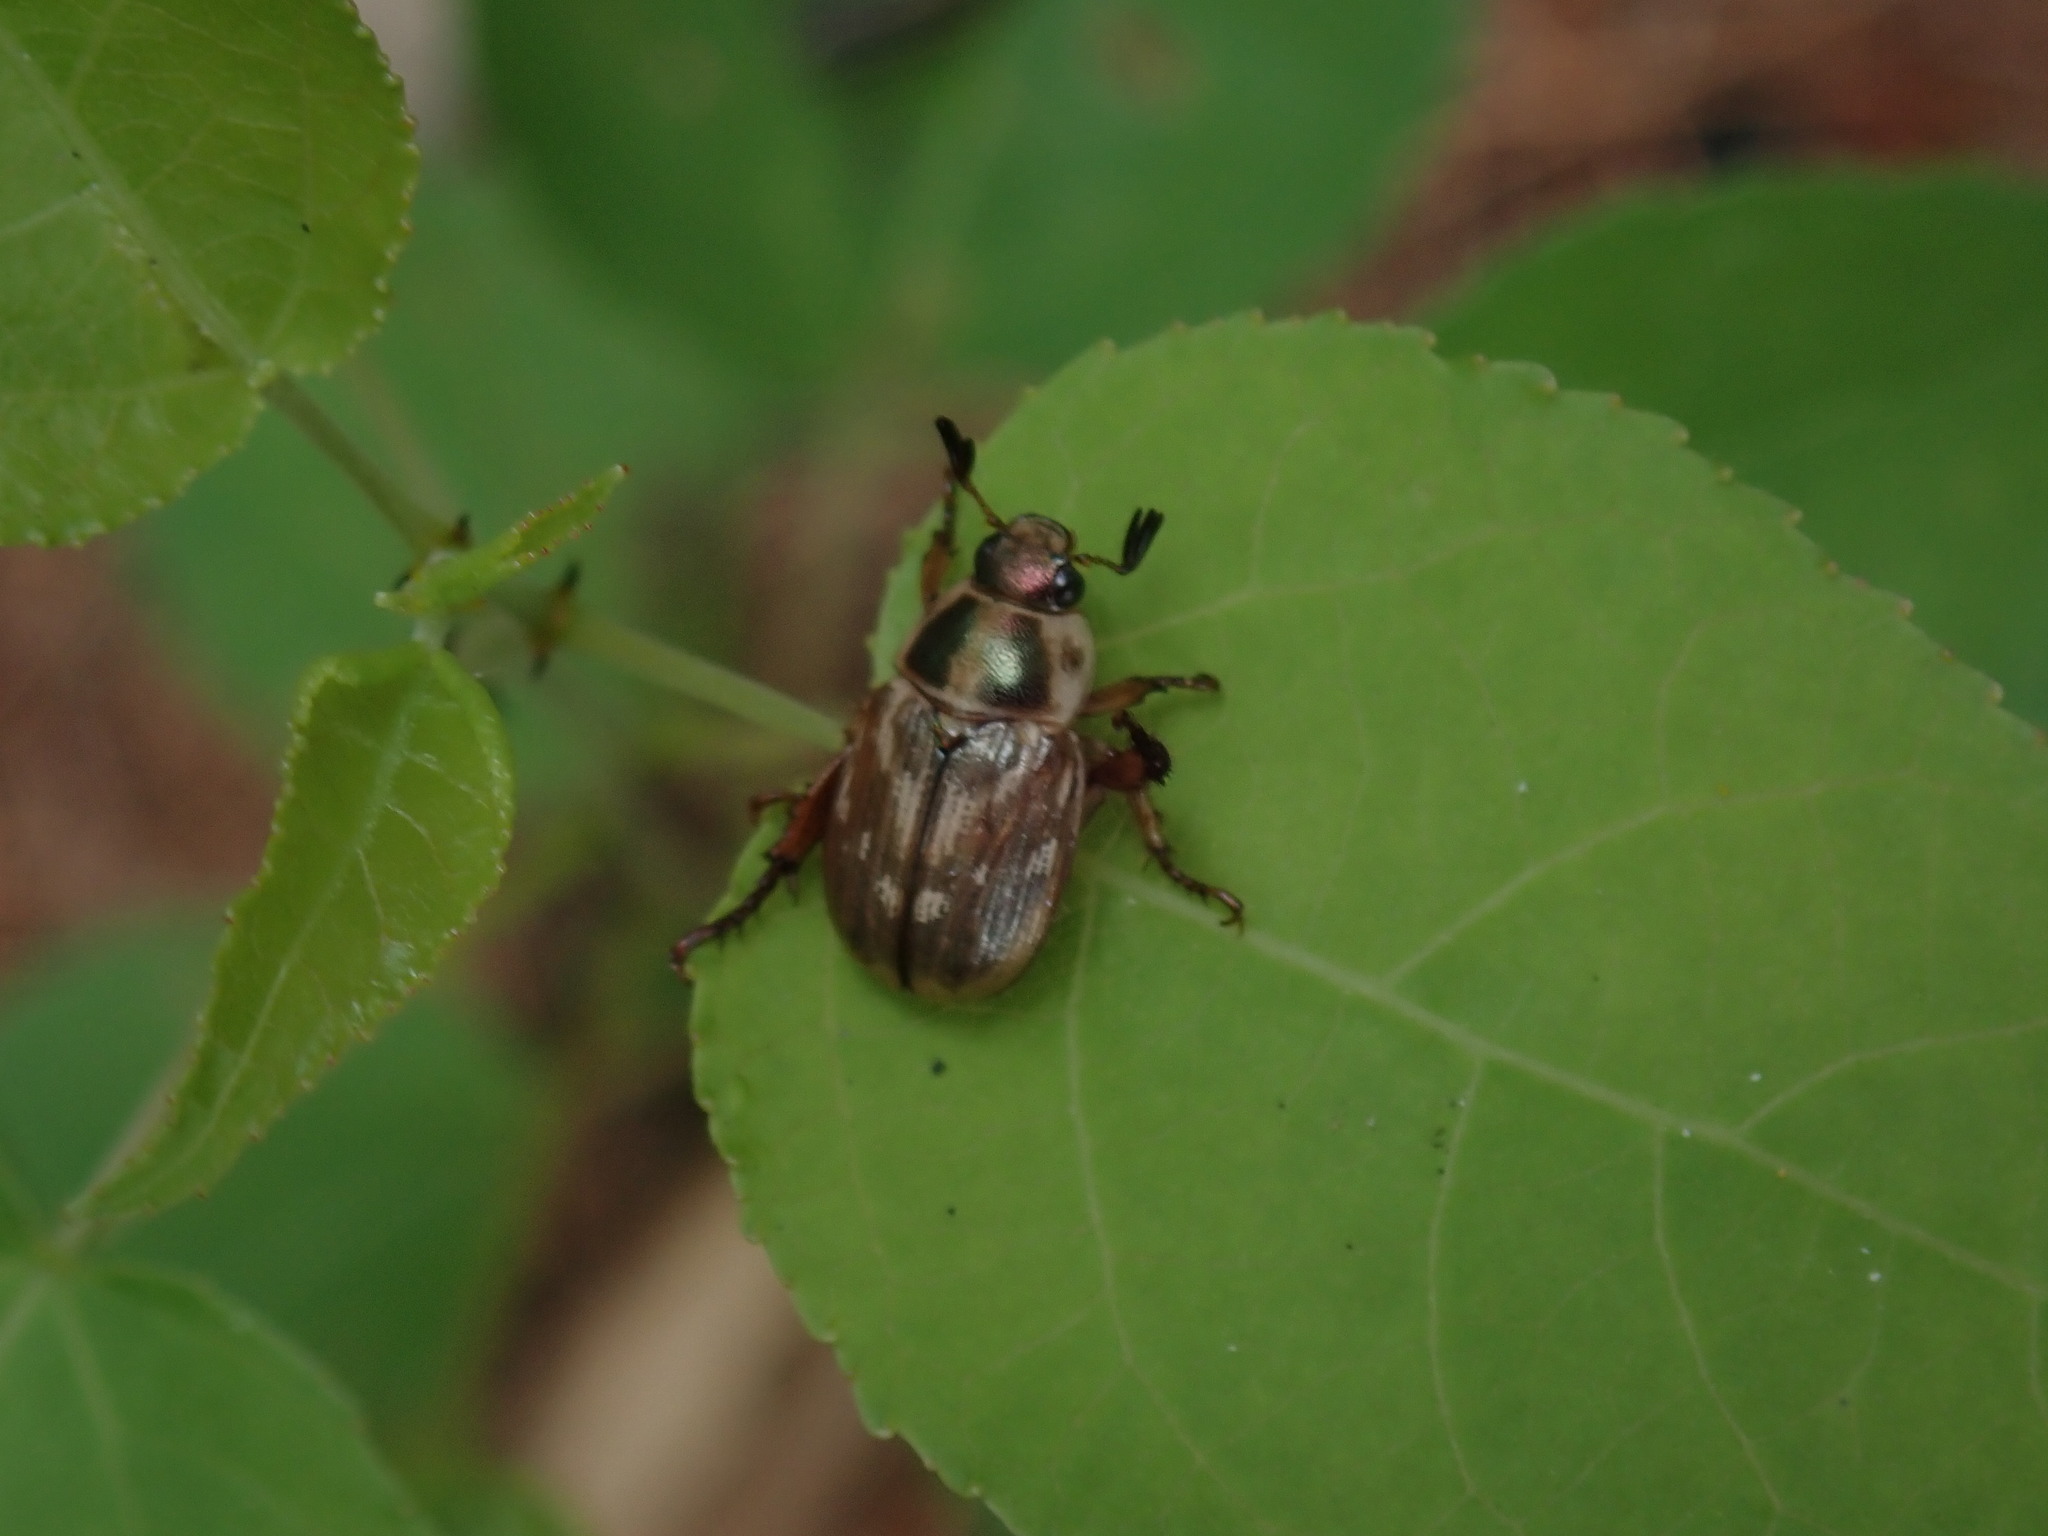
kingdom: Animalia
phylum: Arthropoda
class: Insecta
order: Coleoptera
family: Scarabaeidae
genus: Exomala
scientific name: Exomala orientalis
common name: Oriental beetle
